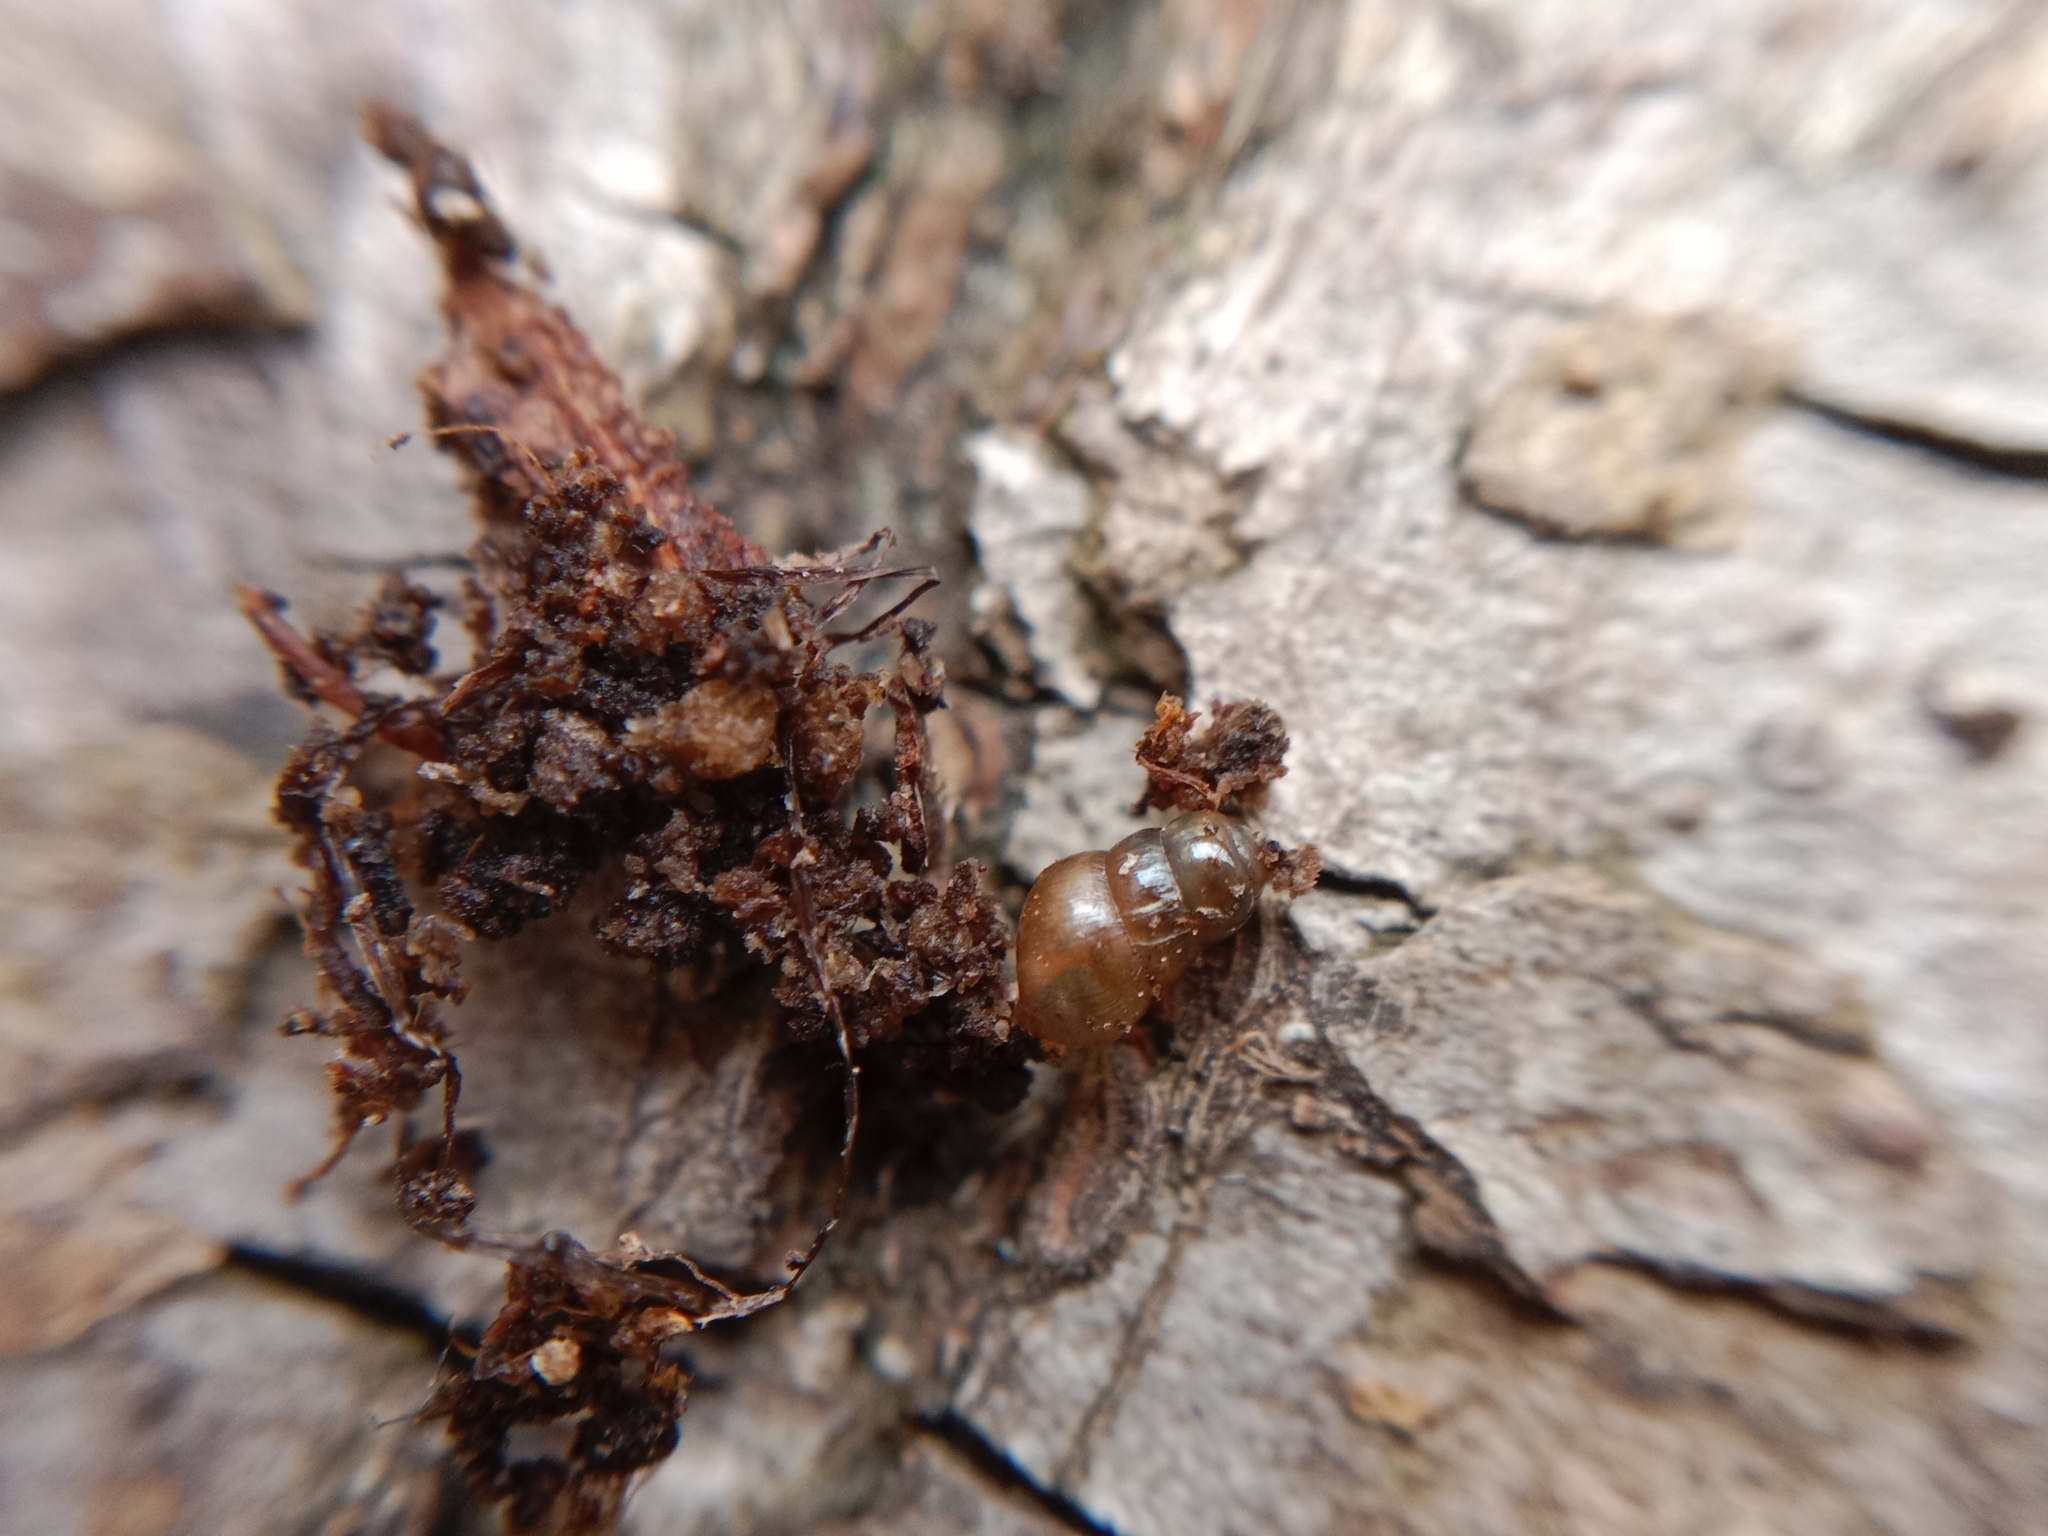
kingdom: Animalia
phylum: Mollusca
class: Gastropoda
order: Stylommatophora
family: Clausiliidae
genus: Cochlodina
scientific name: Cochlodina laminata
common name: Plaited door snail
